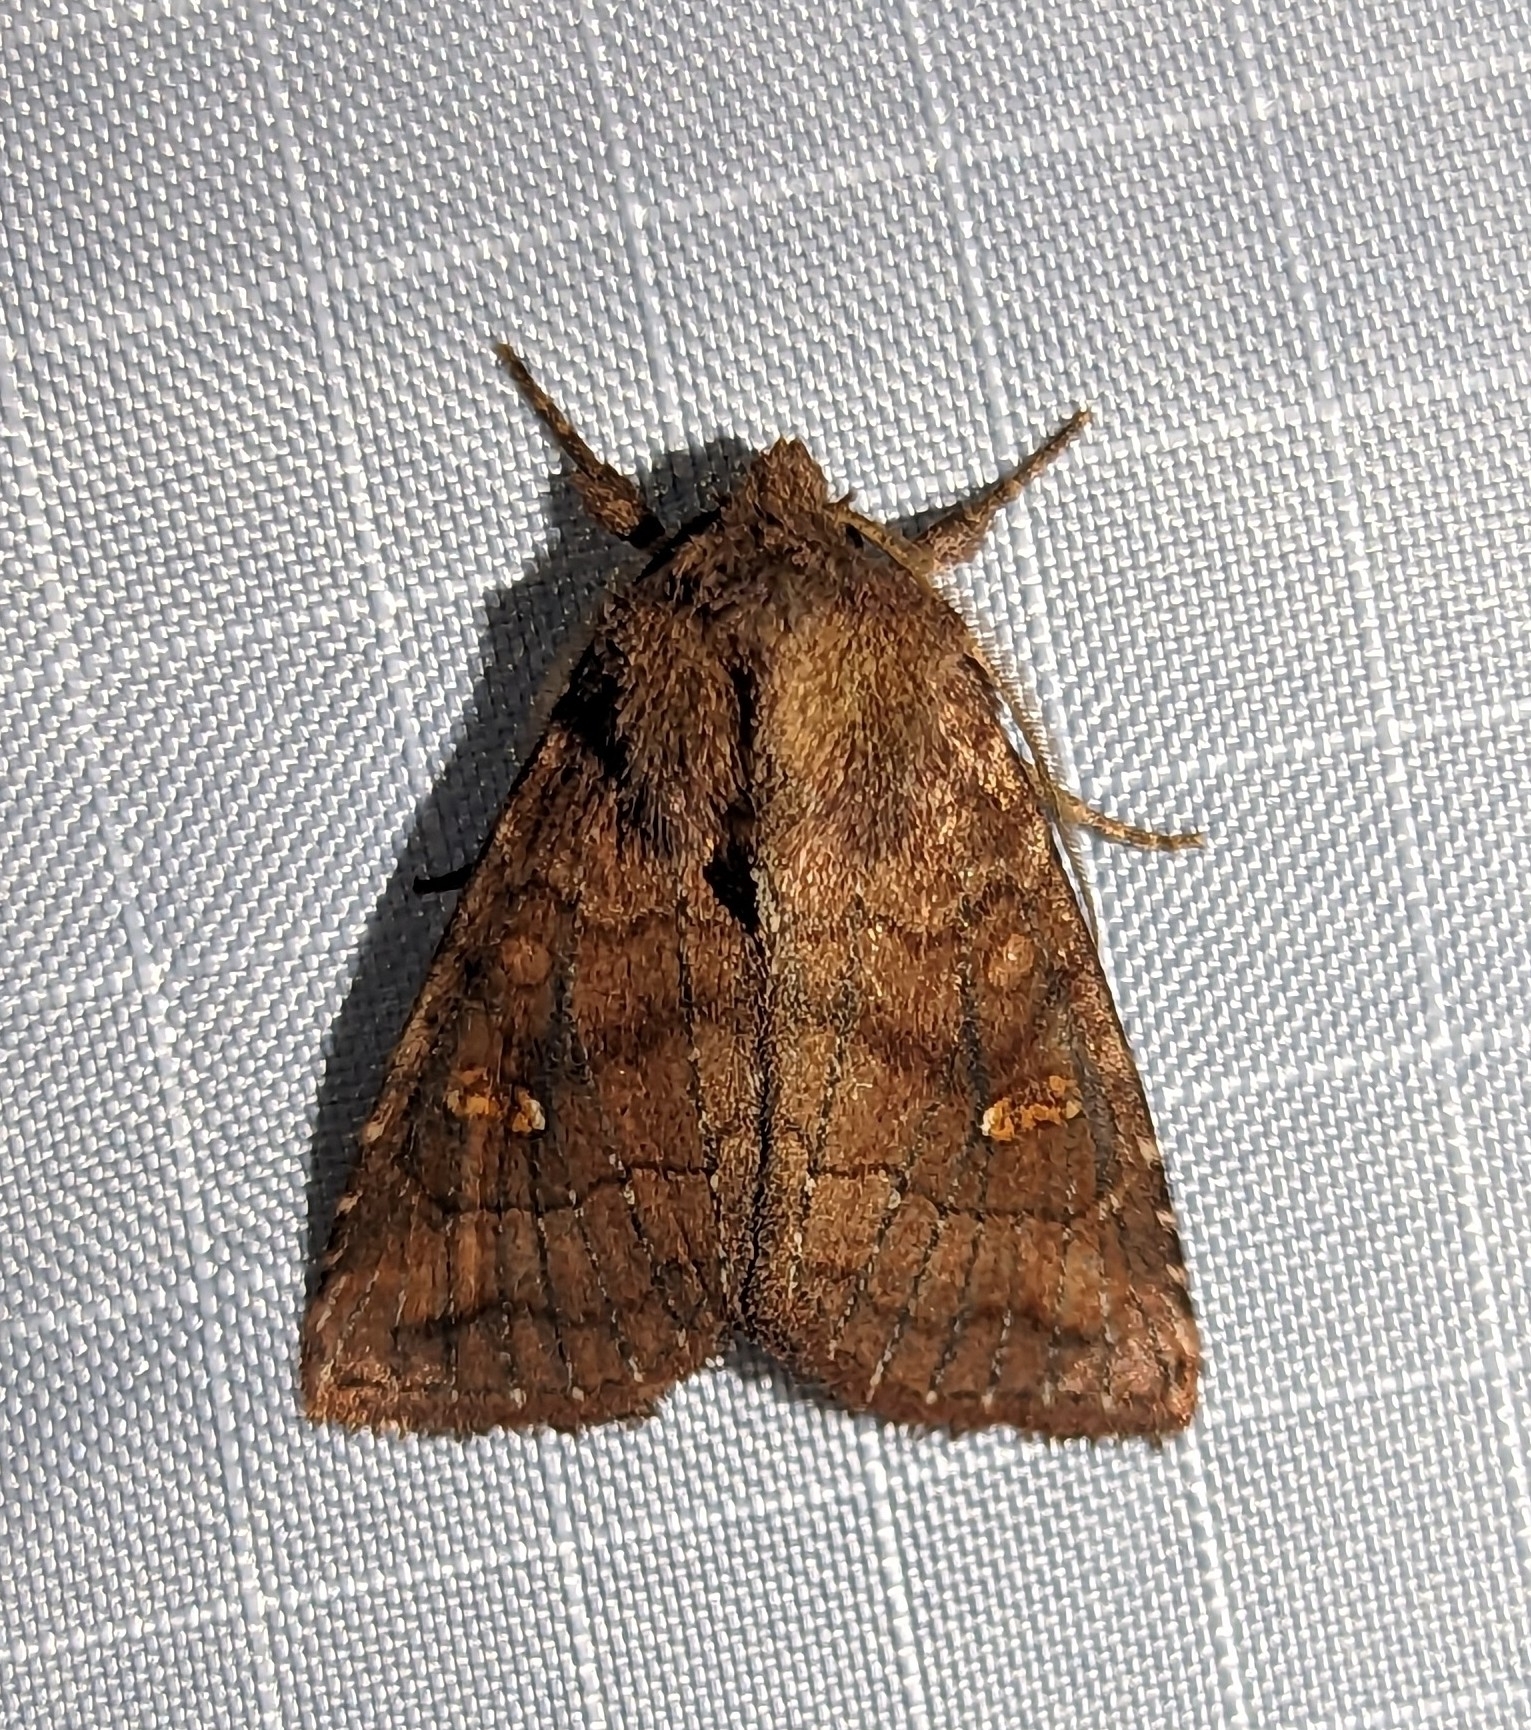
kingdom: Animalia
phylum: Arthropoda
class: Insecta
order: Lepidoptera
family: Noctuidae
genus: Tricholita
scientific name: Tricholita signata
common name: Signate quaker
